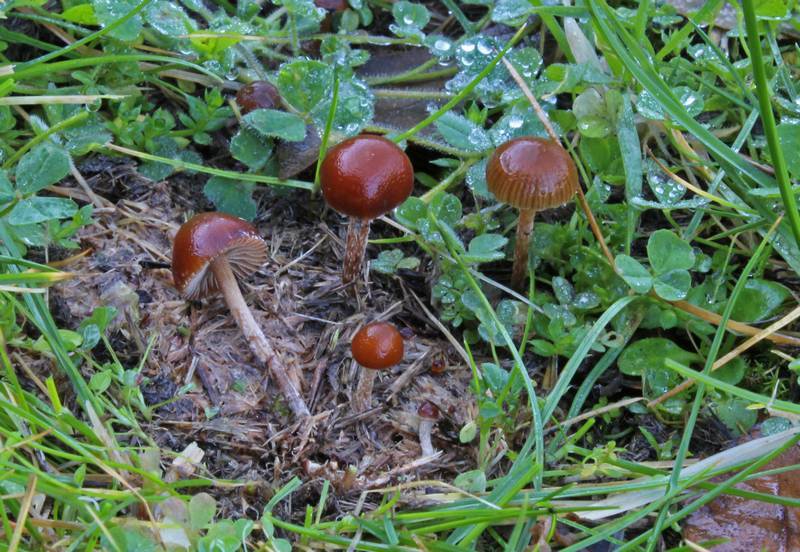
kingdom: Fungi
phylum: Basidiomycota
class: Agaricomycetes
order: Agaricales
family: Strophariaceae
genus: Deconica
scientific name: Deconica coprophila
